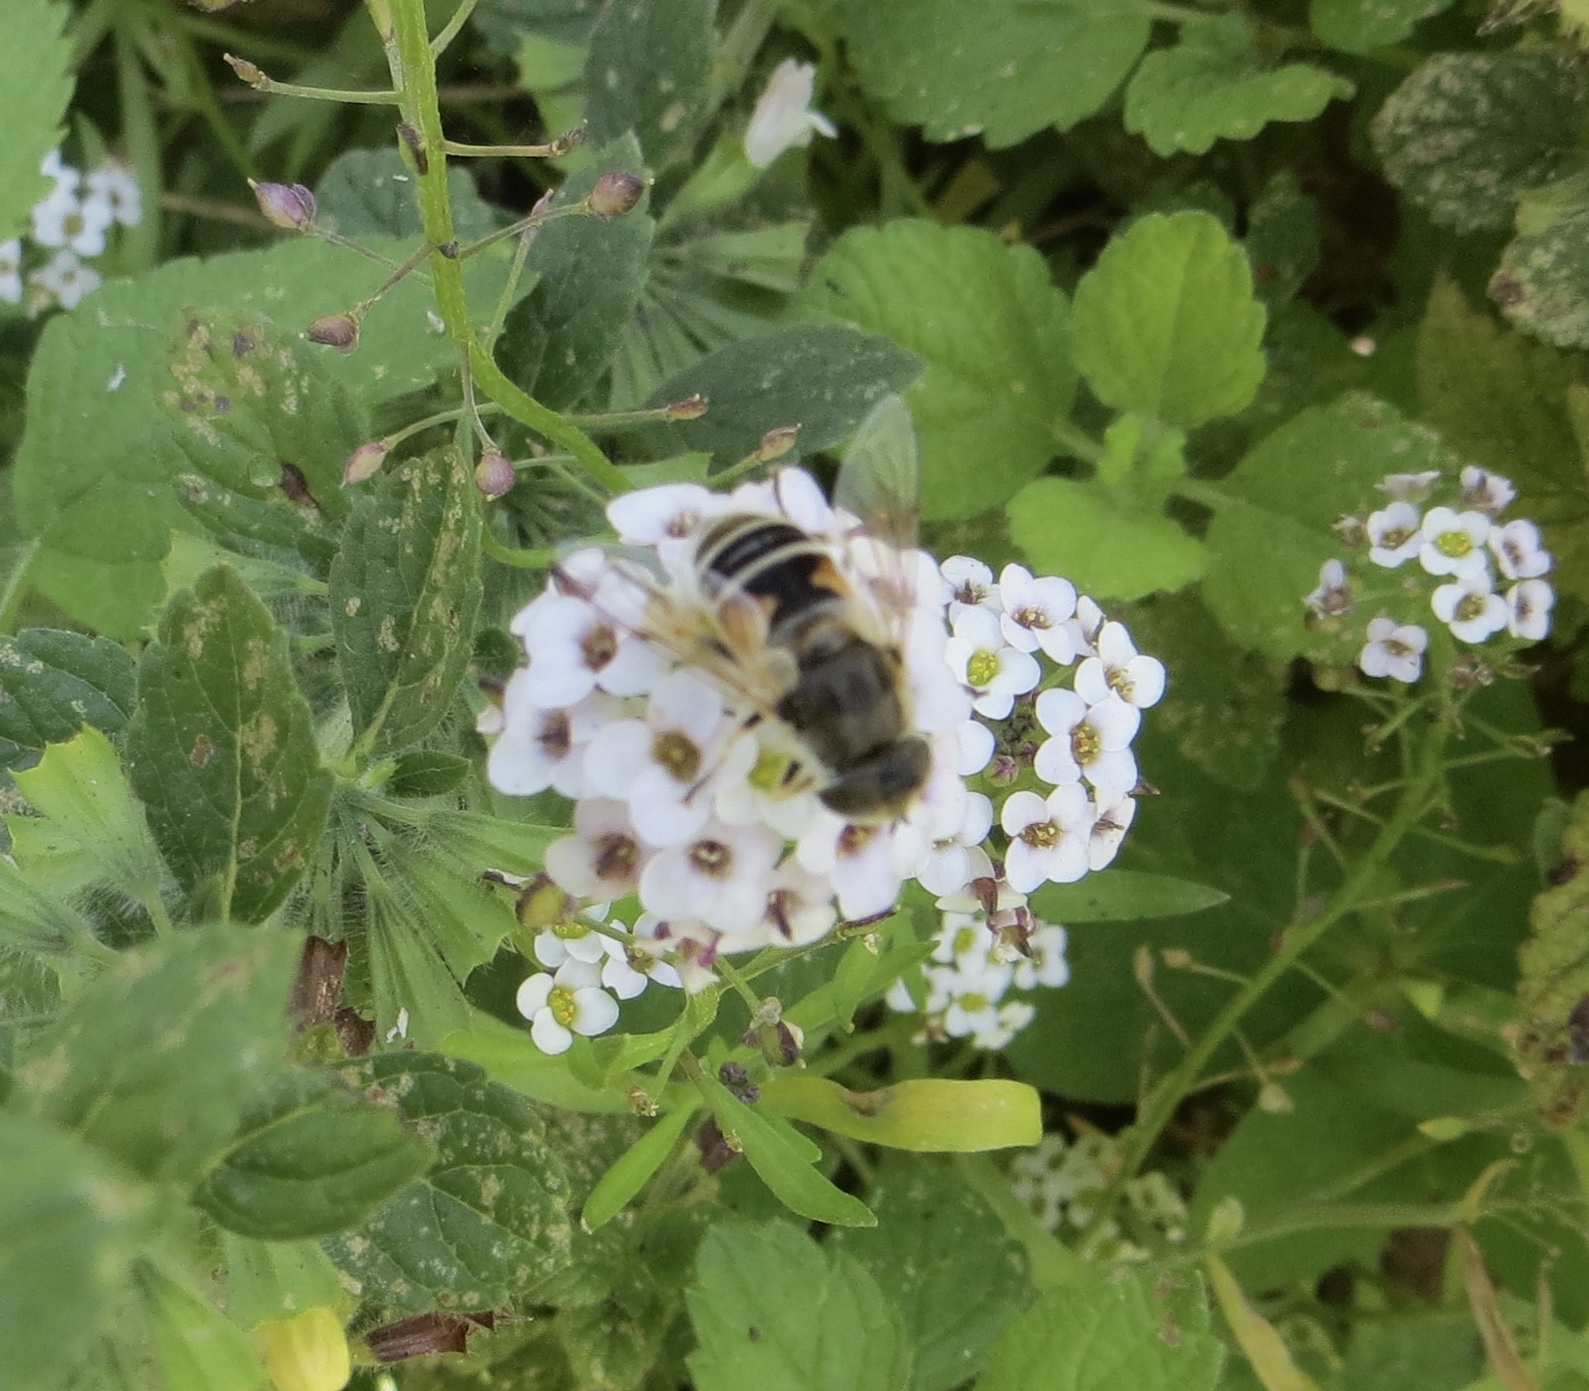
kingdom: Animalia
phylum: Arthropoda
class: Insecta
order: Diptera
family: Syrphidae
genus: Eristalis
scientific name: Eristalis arbustorum
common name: Hover fly
